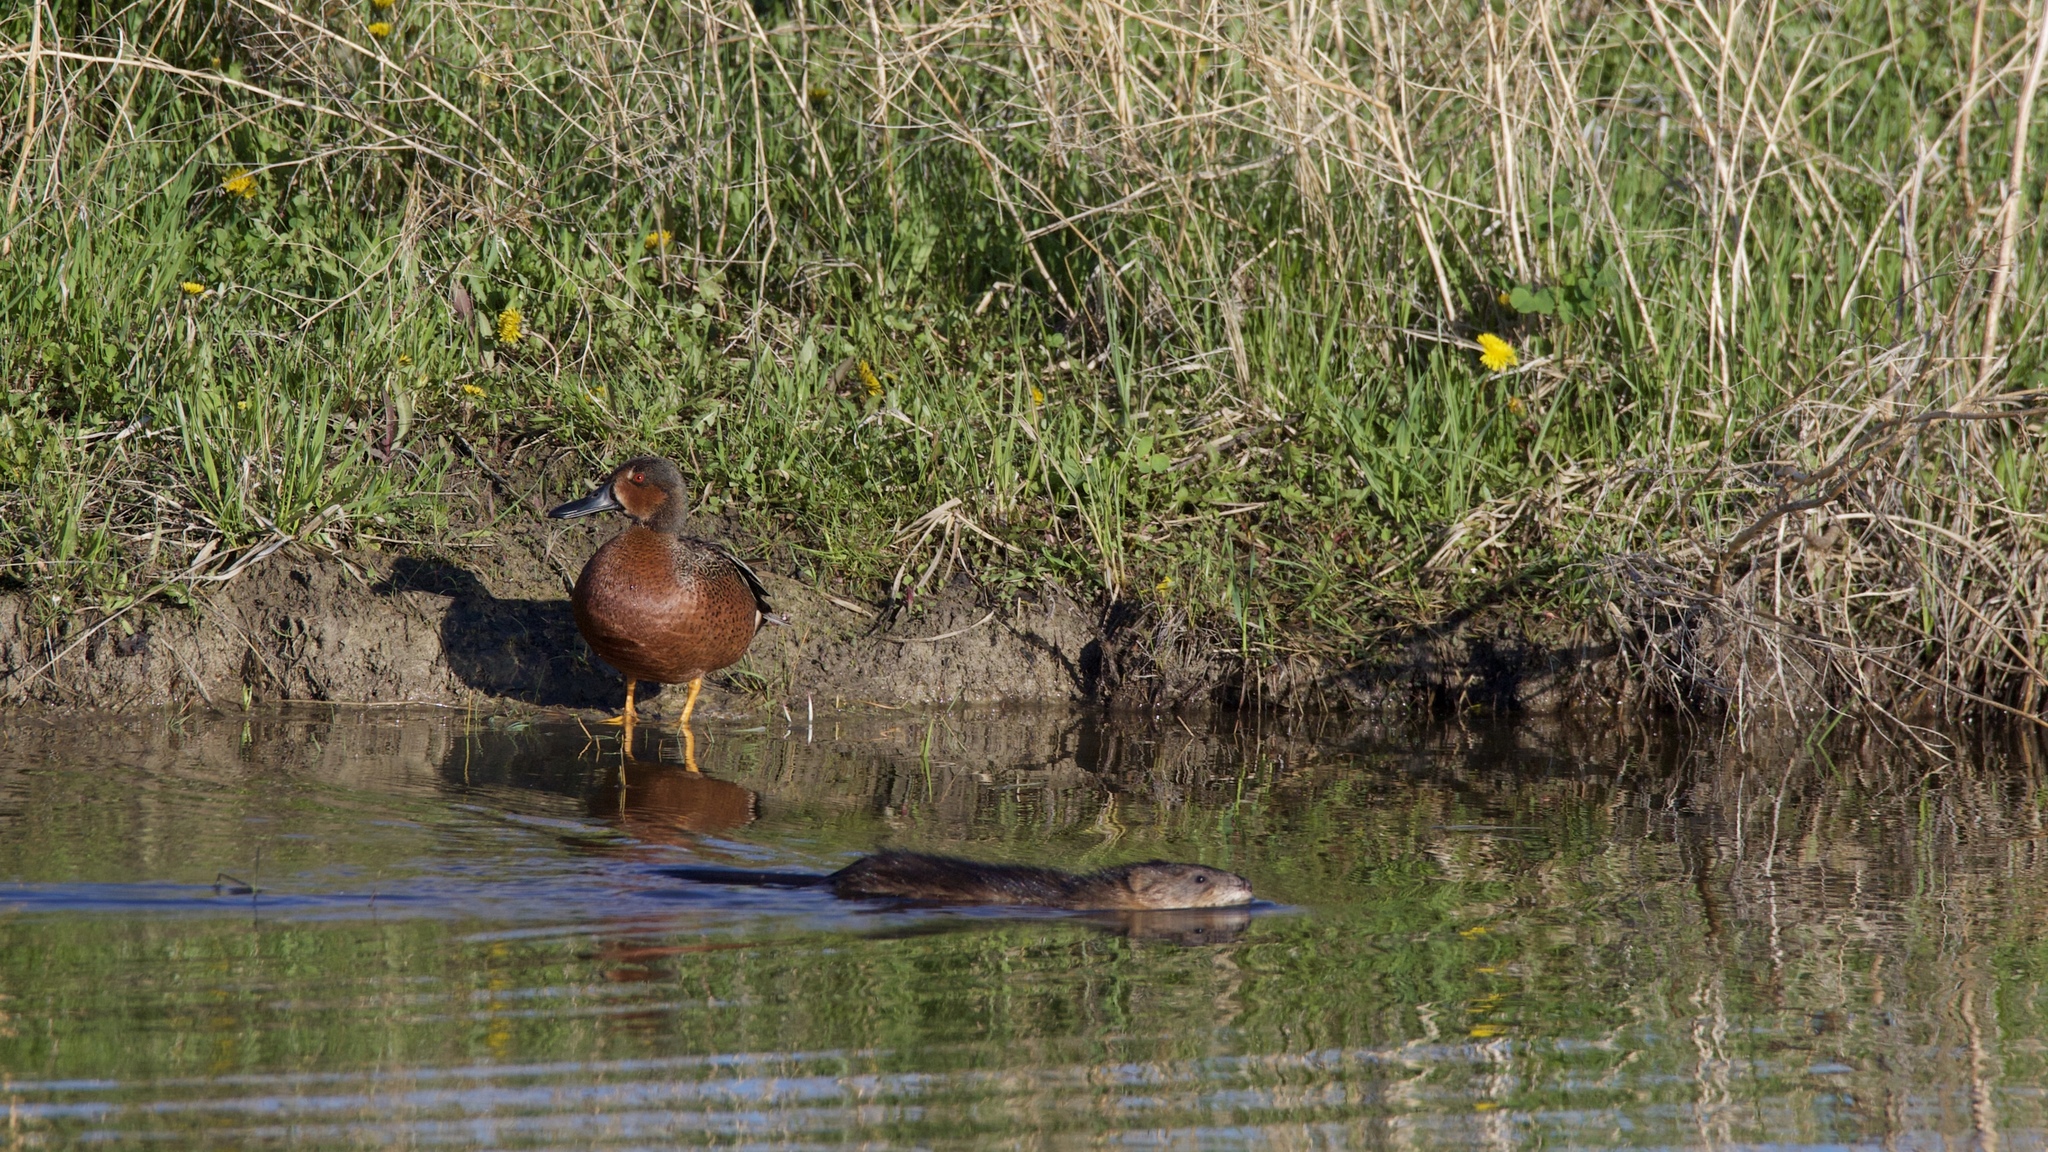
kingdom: Animalia
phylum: Chordata
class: Aves
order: Anseriformes
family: Anatidae
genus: Spatula
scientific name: Spatula cyanoptera
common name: Cinnamon teal
